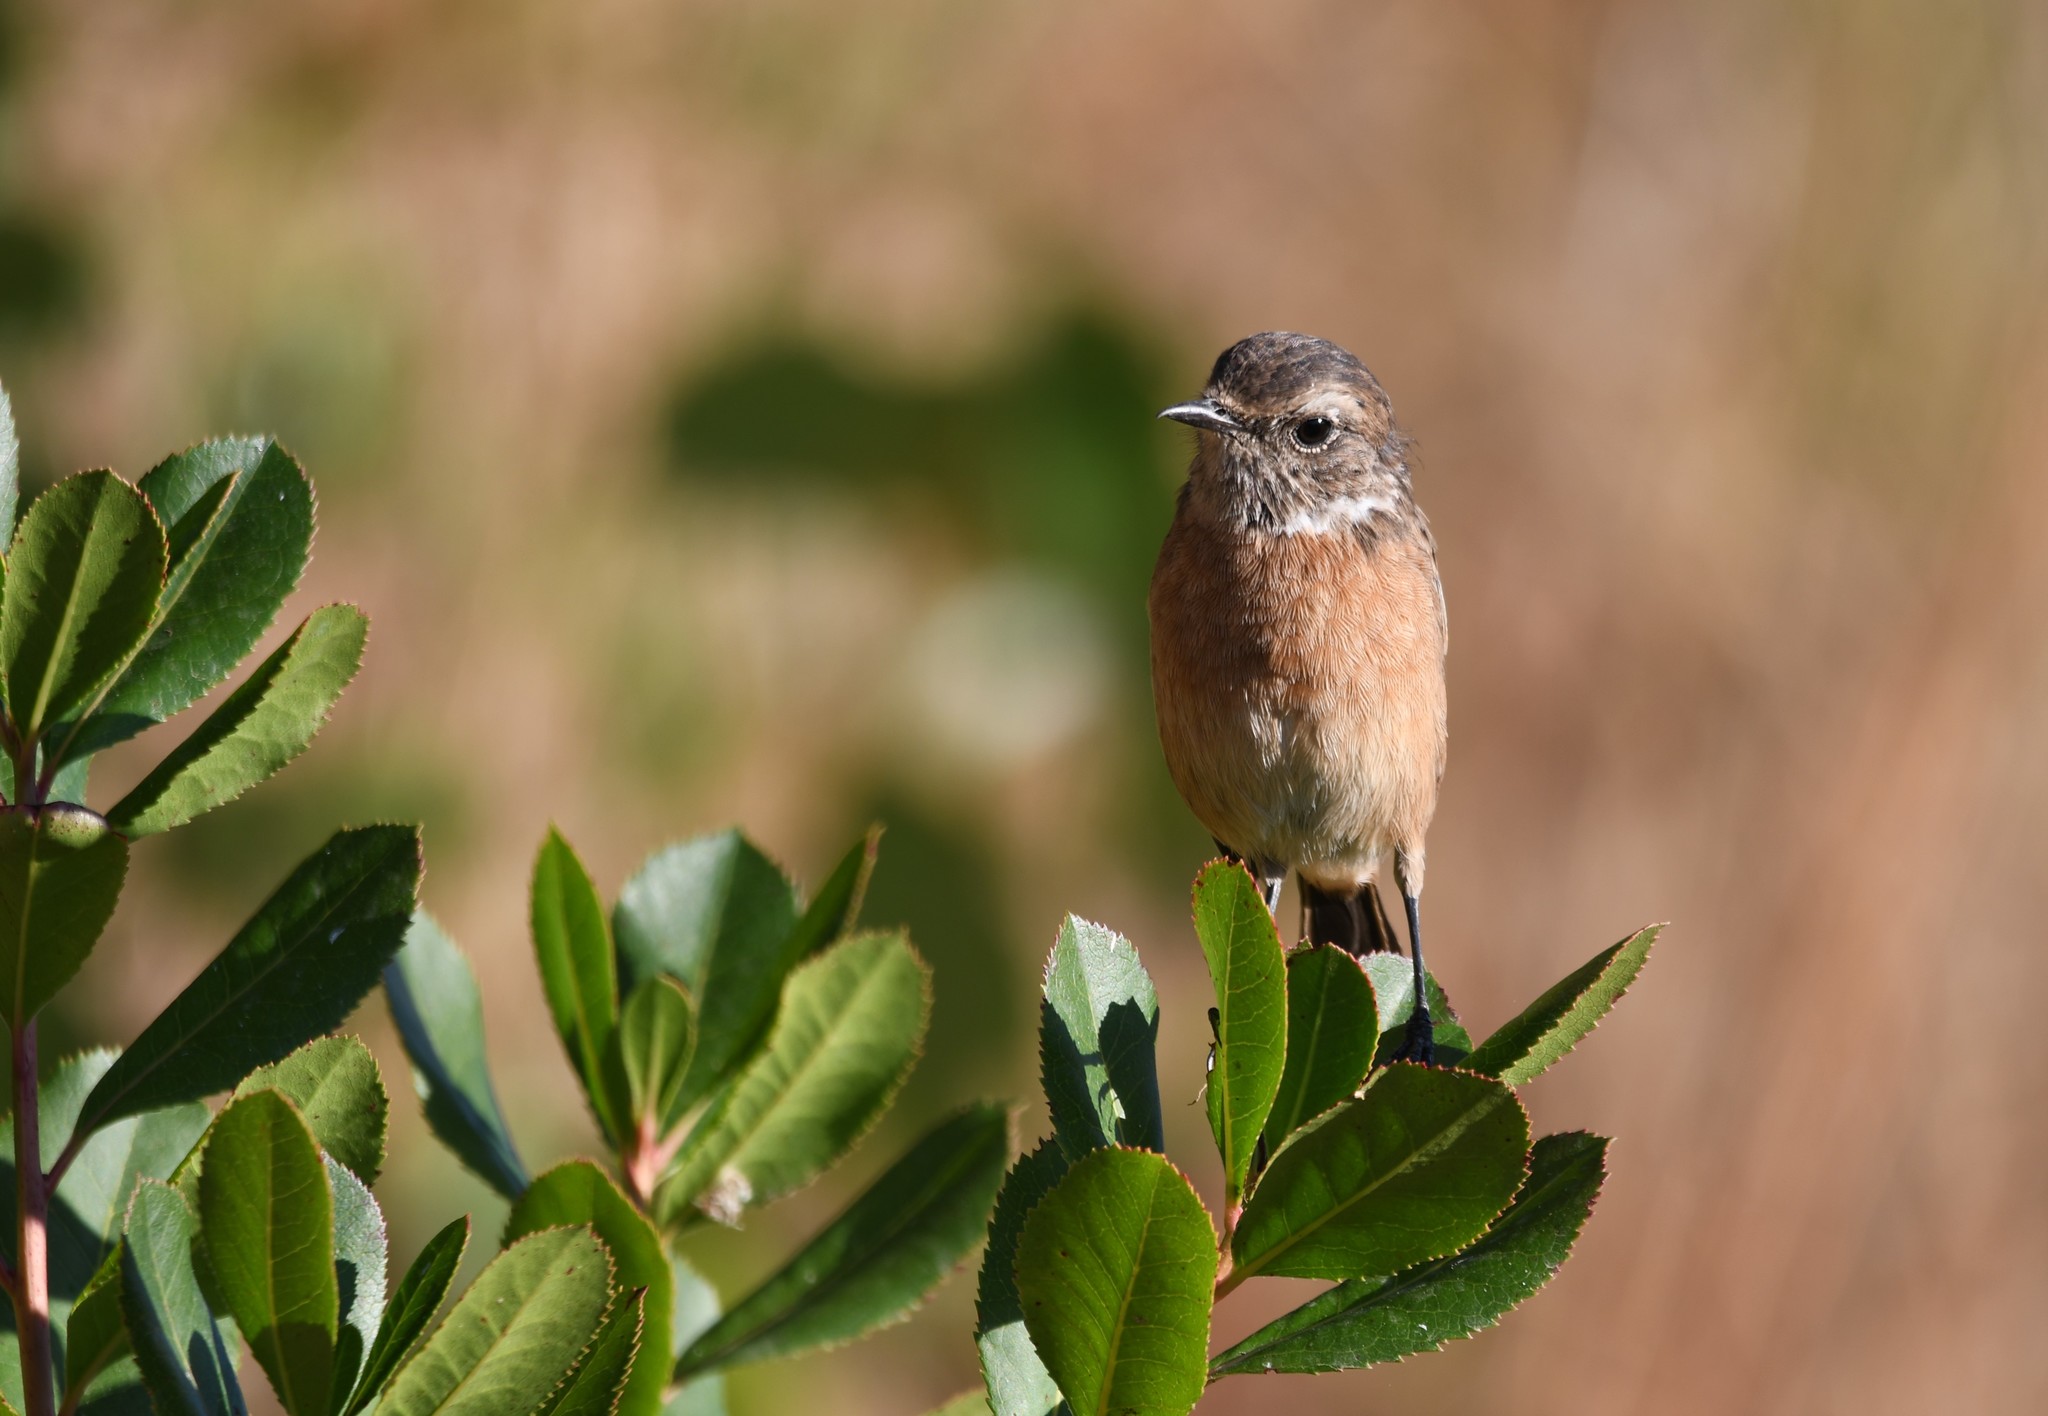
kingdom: Animalia
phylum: Chordata
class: Aves
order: Passeriformes
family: Muscicapidae
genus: Saxicola
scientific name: Saxicola rubicola
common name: European stonechat
